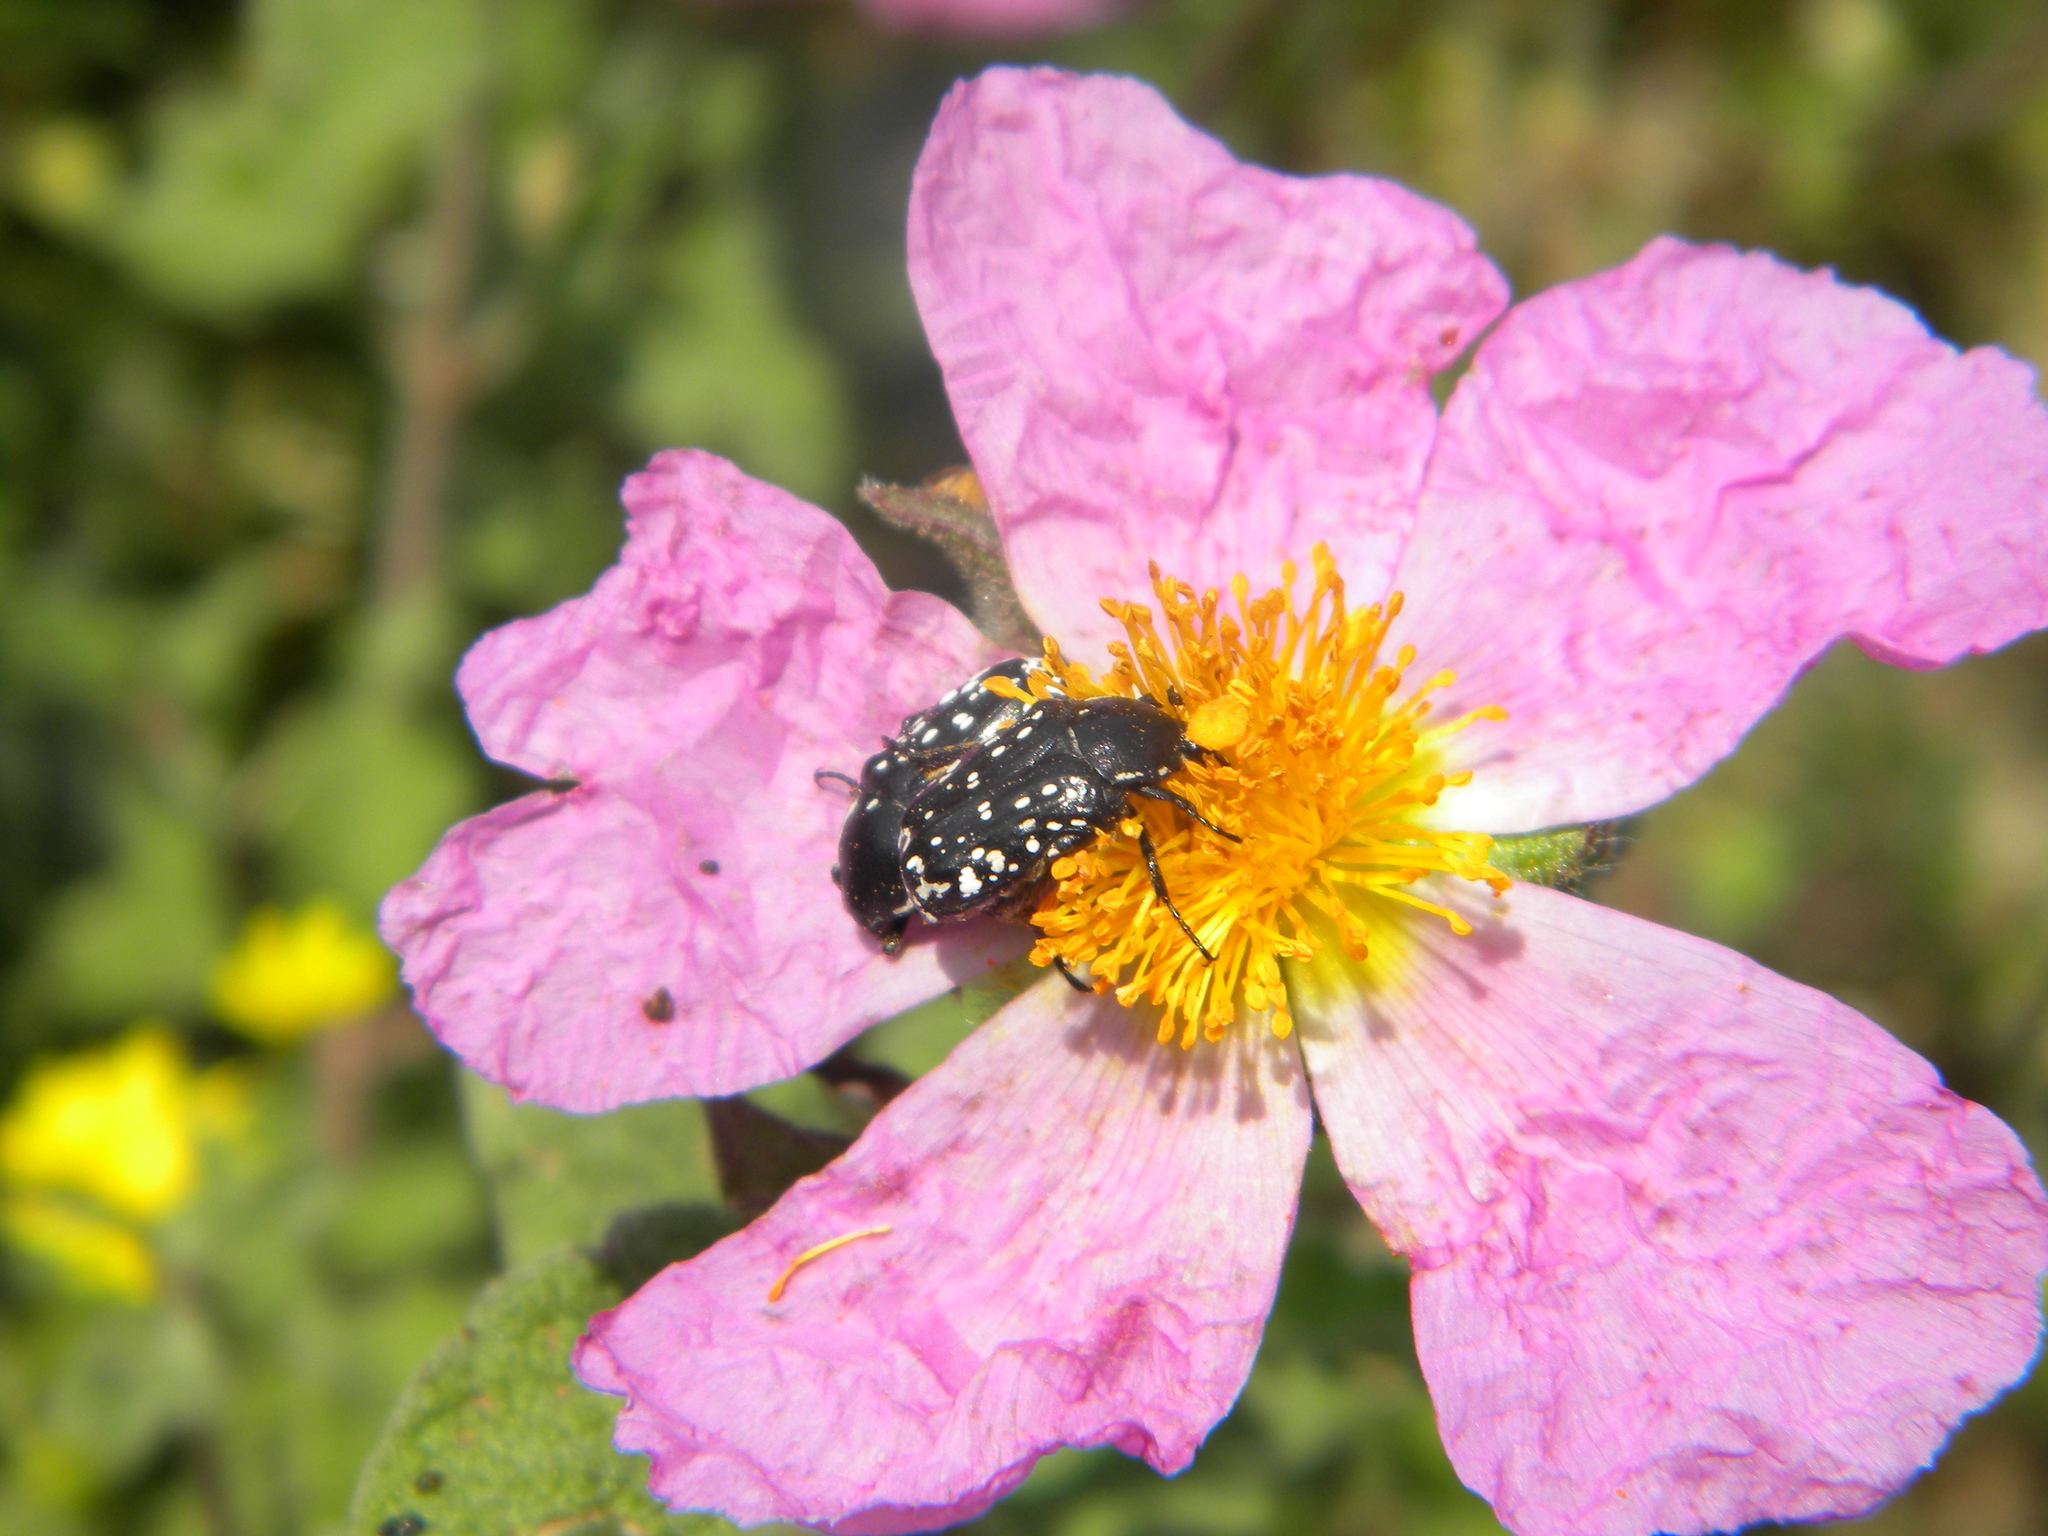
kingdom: Animalia
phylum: Arthropoda
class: Insecta
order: Coleoptera
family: Scarabaeidae
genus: Oxythyrea
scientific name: Oxythyrea cinctella
